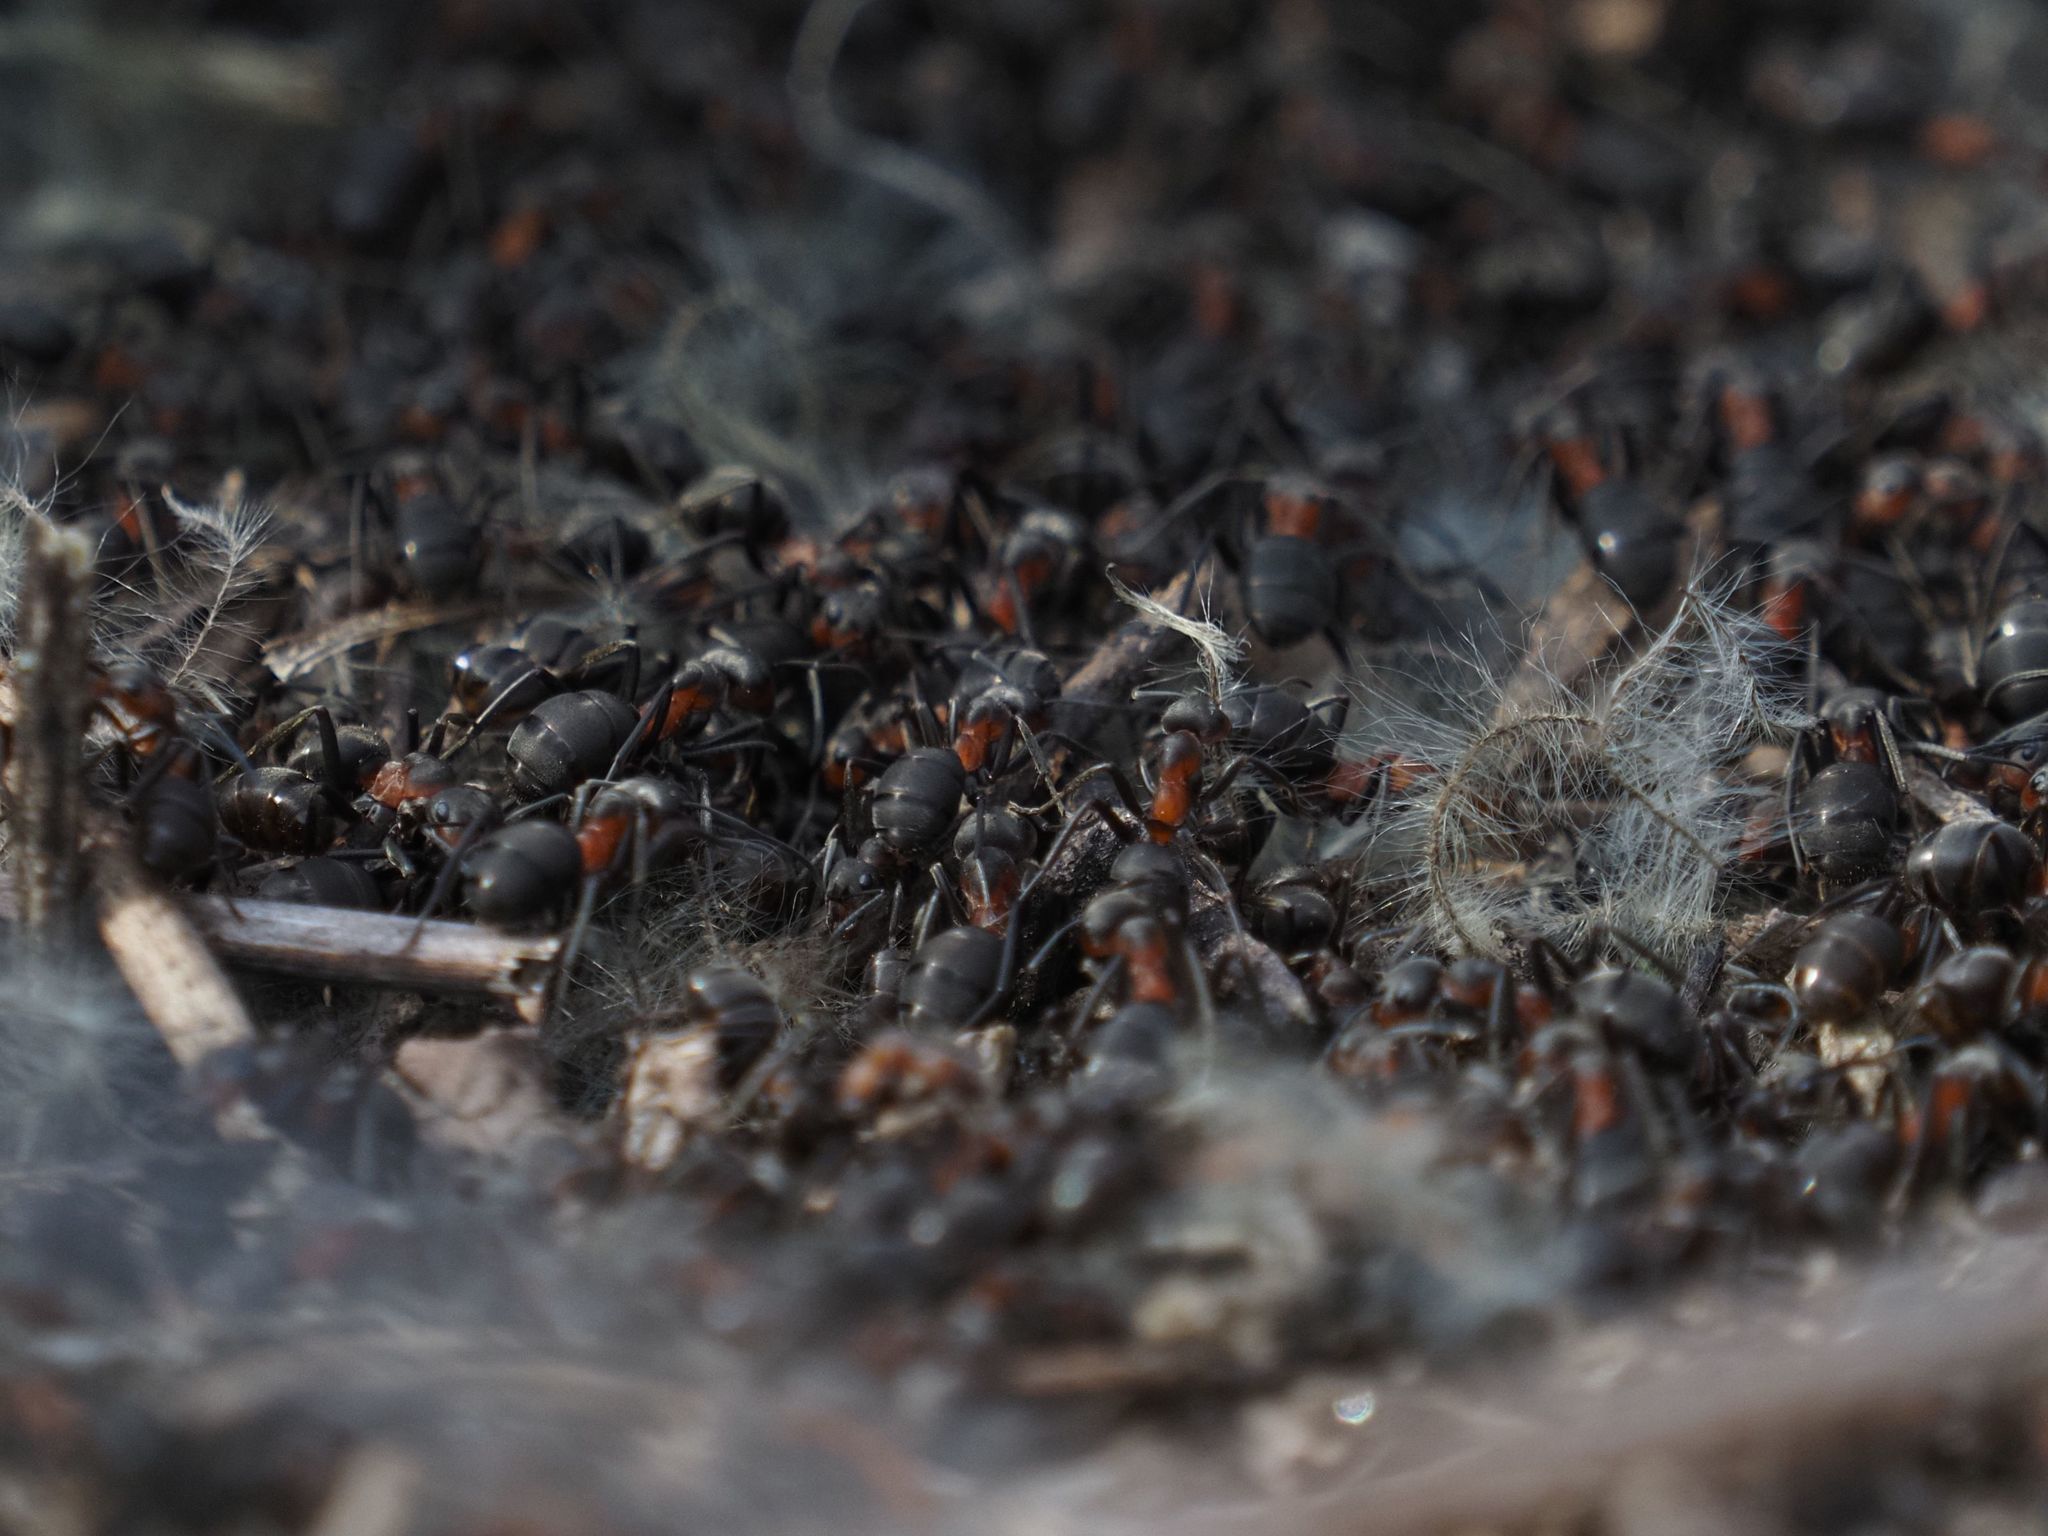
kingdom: Animalia
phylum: Arthropoda
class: Insecta
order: Hymenoptera
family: Formicidae
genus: Formica
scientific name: Formica rufa
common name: Red wood ant
